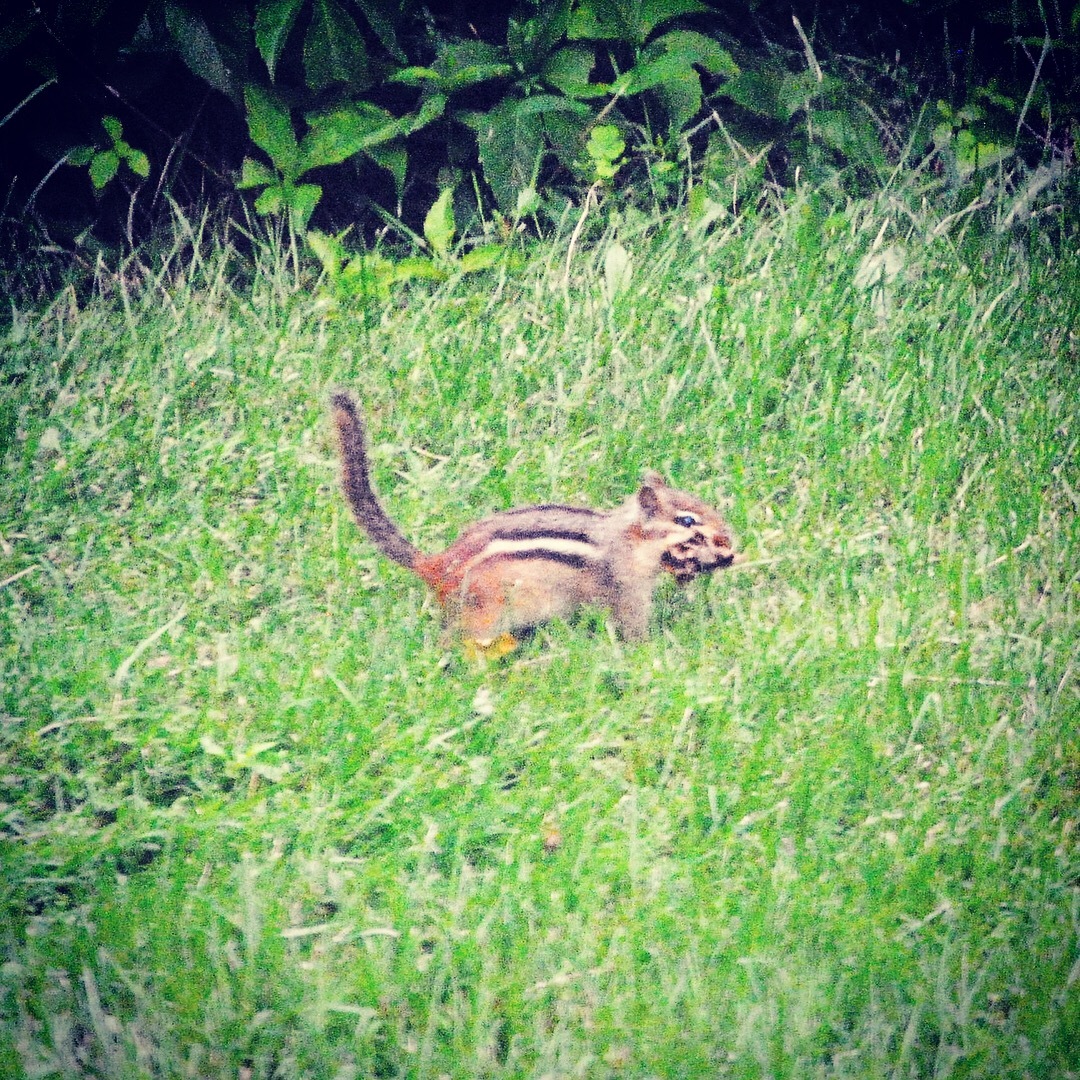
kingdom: Animalia
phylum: Chordata
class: Mammalia
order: Rodentia
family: Sciuridae
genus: Tamias
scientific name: Tamias striatus
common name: Eastern chipmunk
